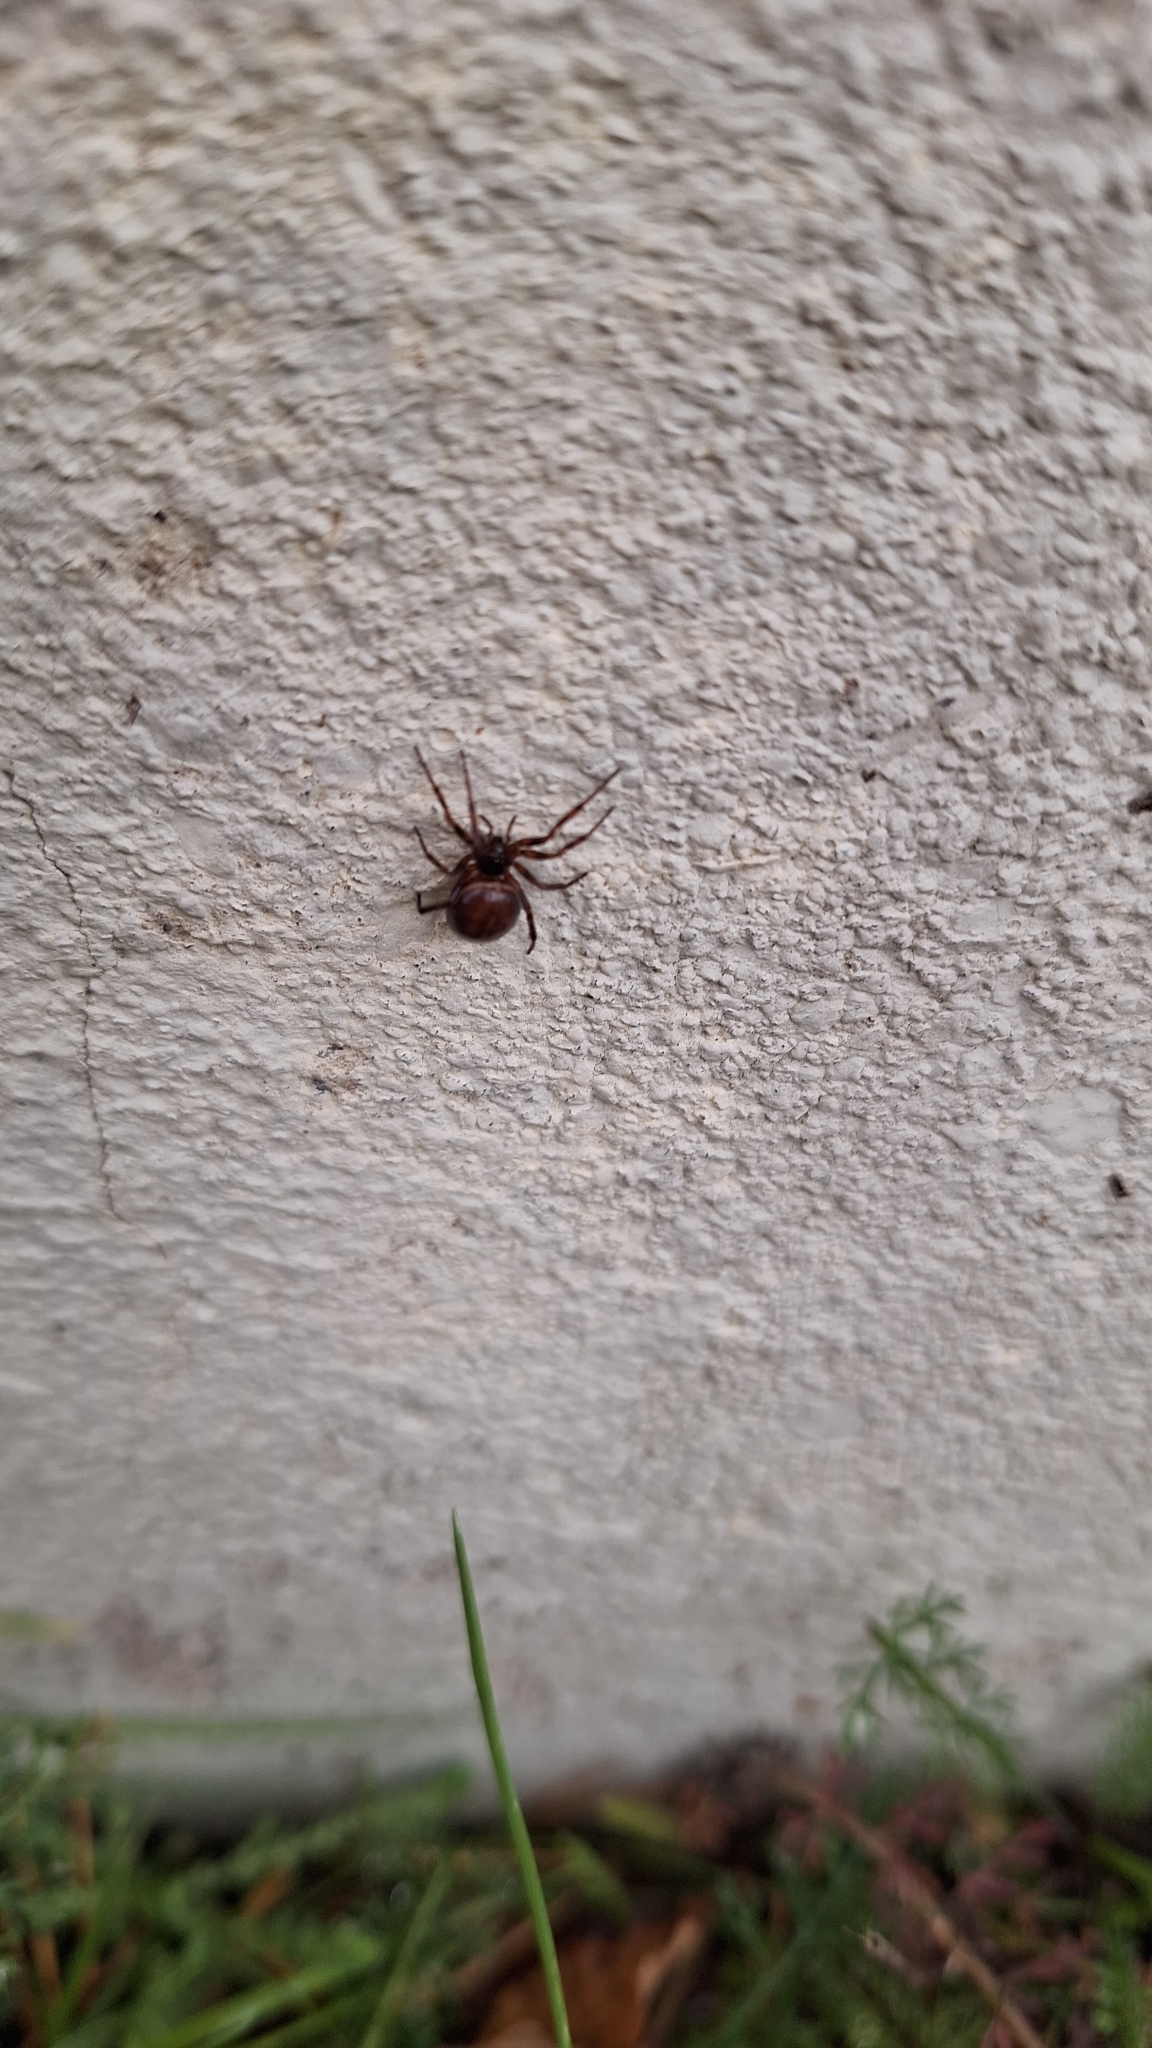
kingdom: Animalia
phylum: Arthropoda
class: Arachnida
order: Araneae
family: Theridiidae
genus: Steatoda
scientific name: Steatoda bipunctata
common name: False widow
